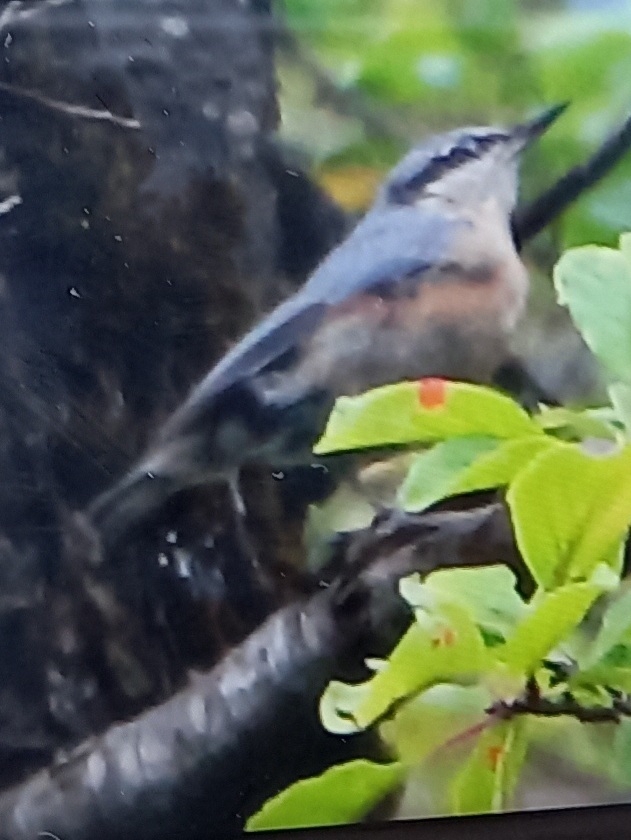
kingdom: Animalia
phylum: Chordata
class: Aves
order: Passeriformes
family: Sittidae
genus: Sitta
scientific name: Sitta europaea
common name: Eurasian nuthatch
